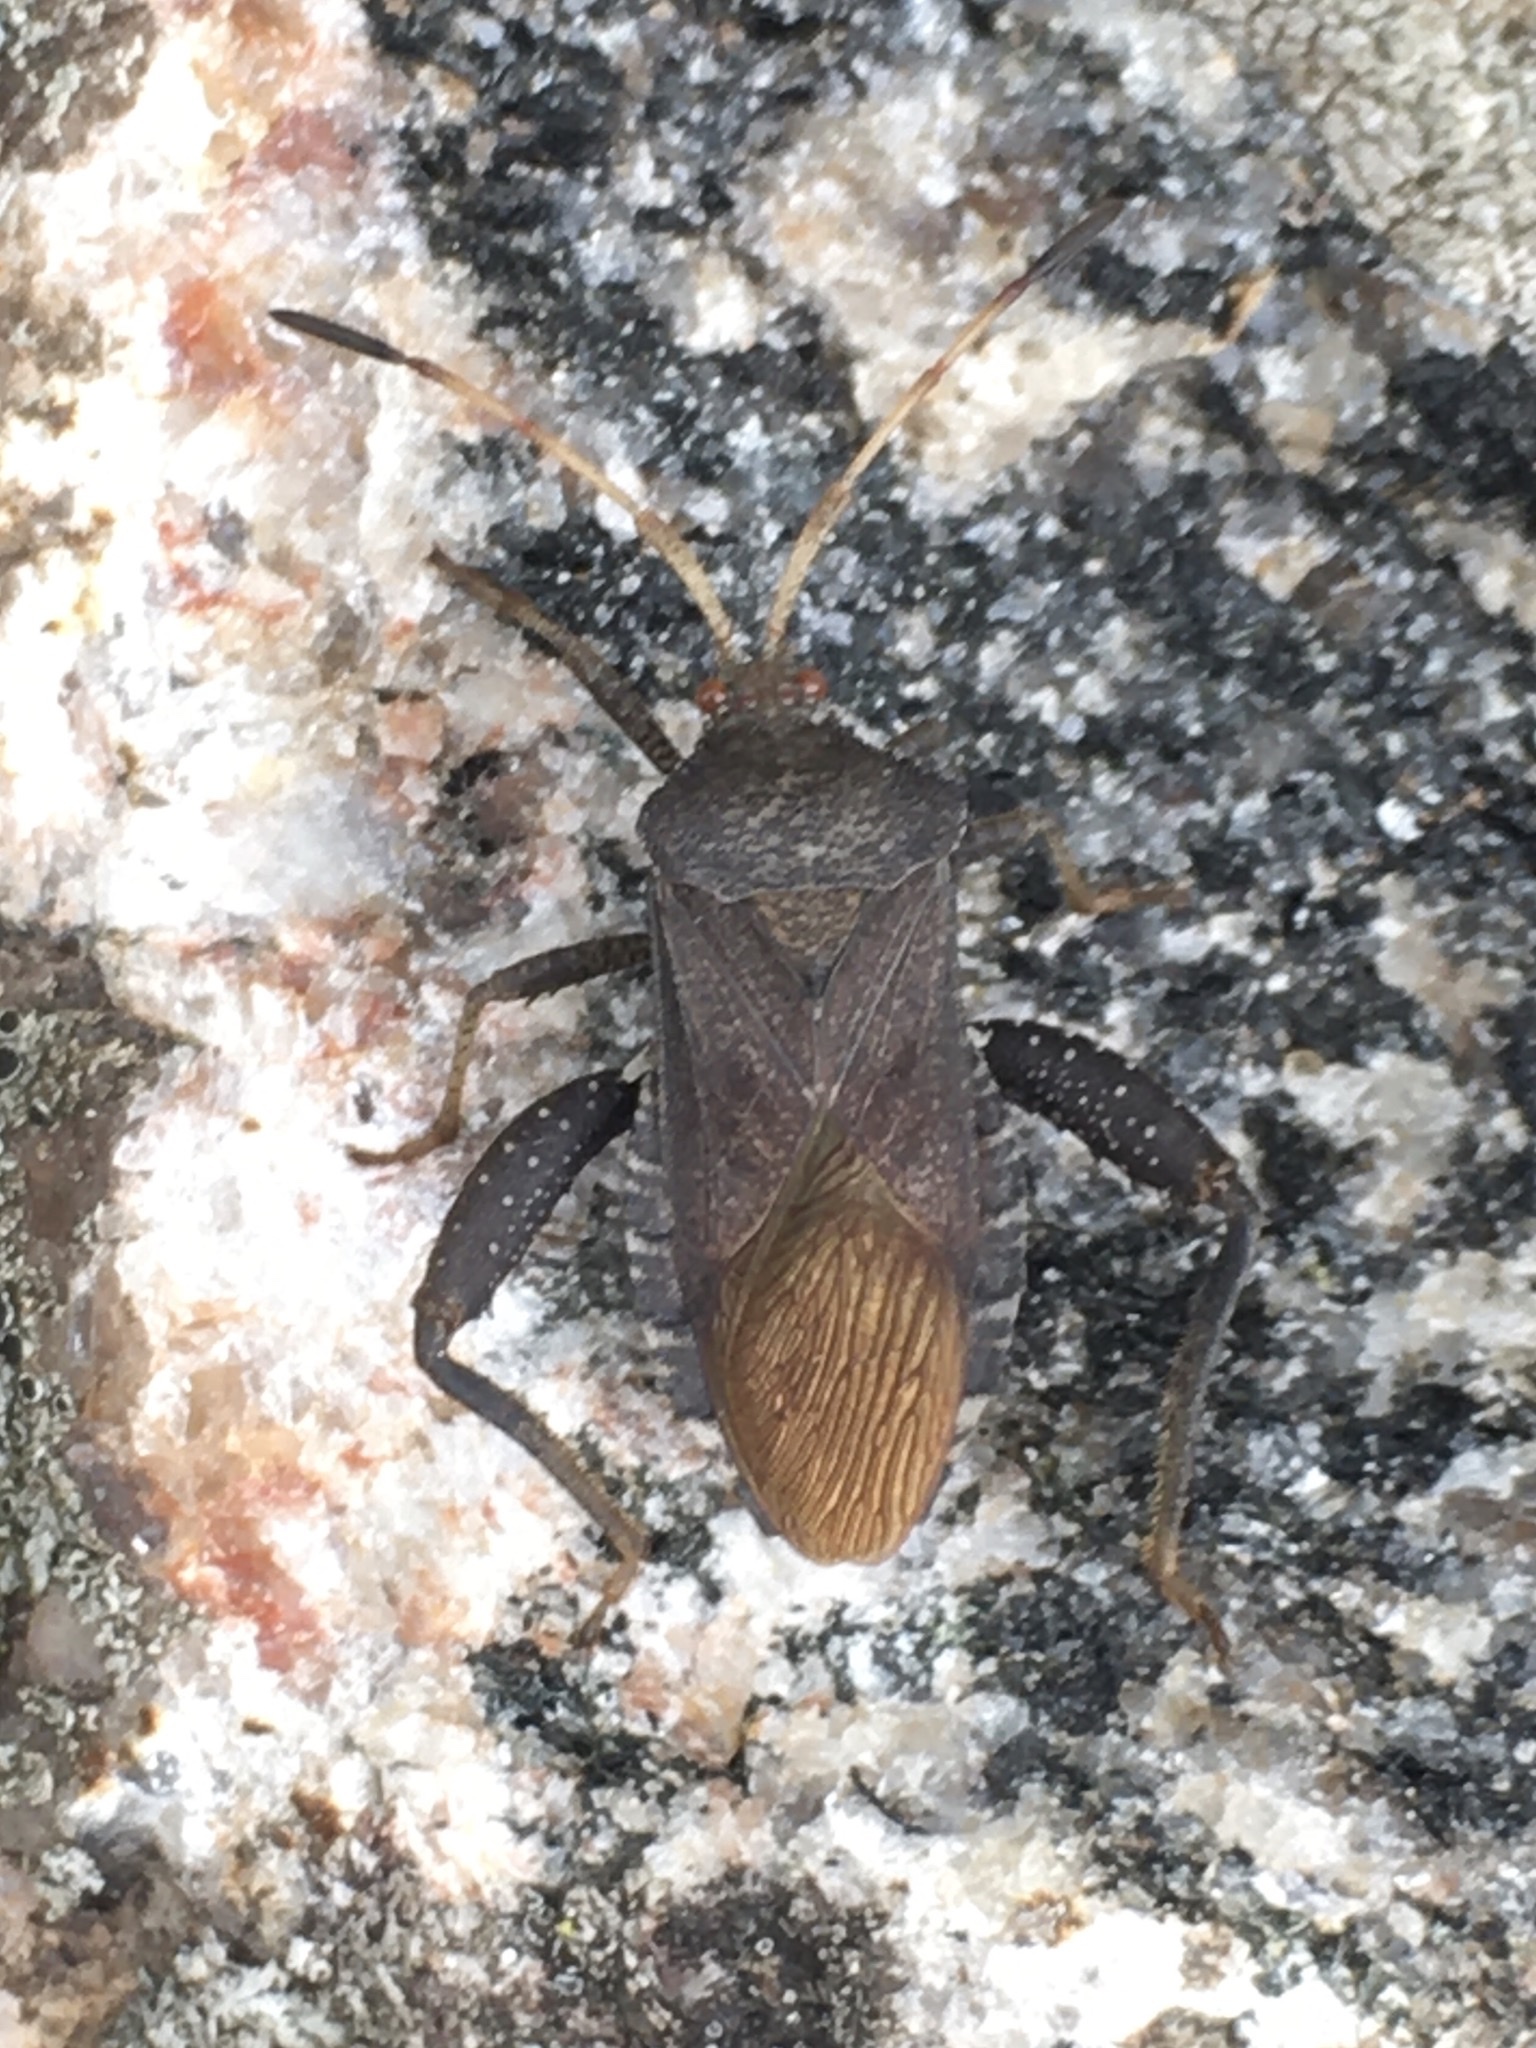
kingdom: Animalia
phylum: Arthropoda
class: Insecta
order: Hemiptera
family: Coreidae
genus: Euthochtha
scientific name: Euthochtha galeator
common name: Helmeted squash bug
